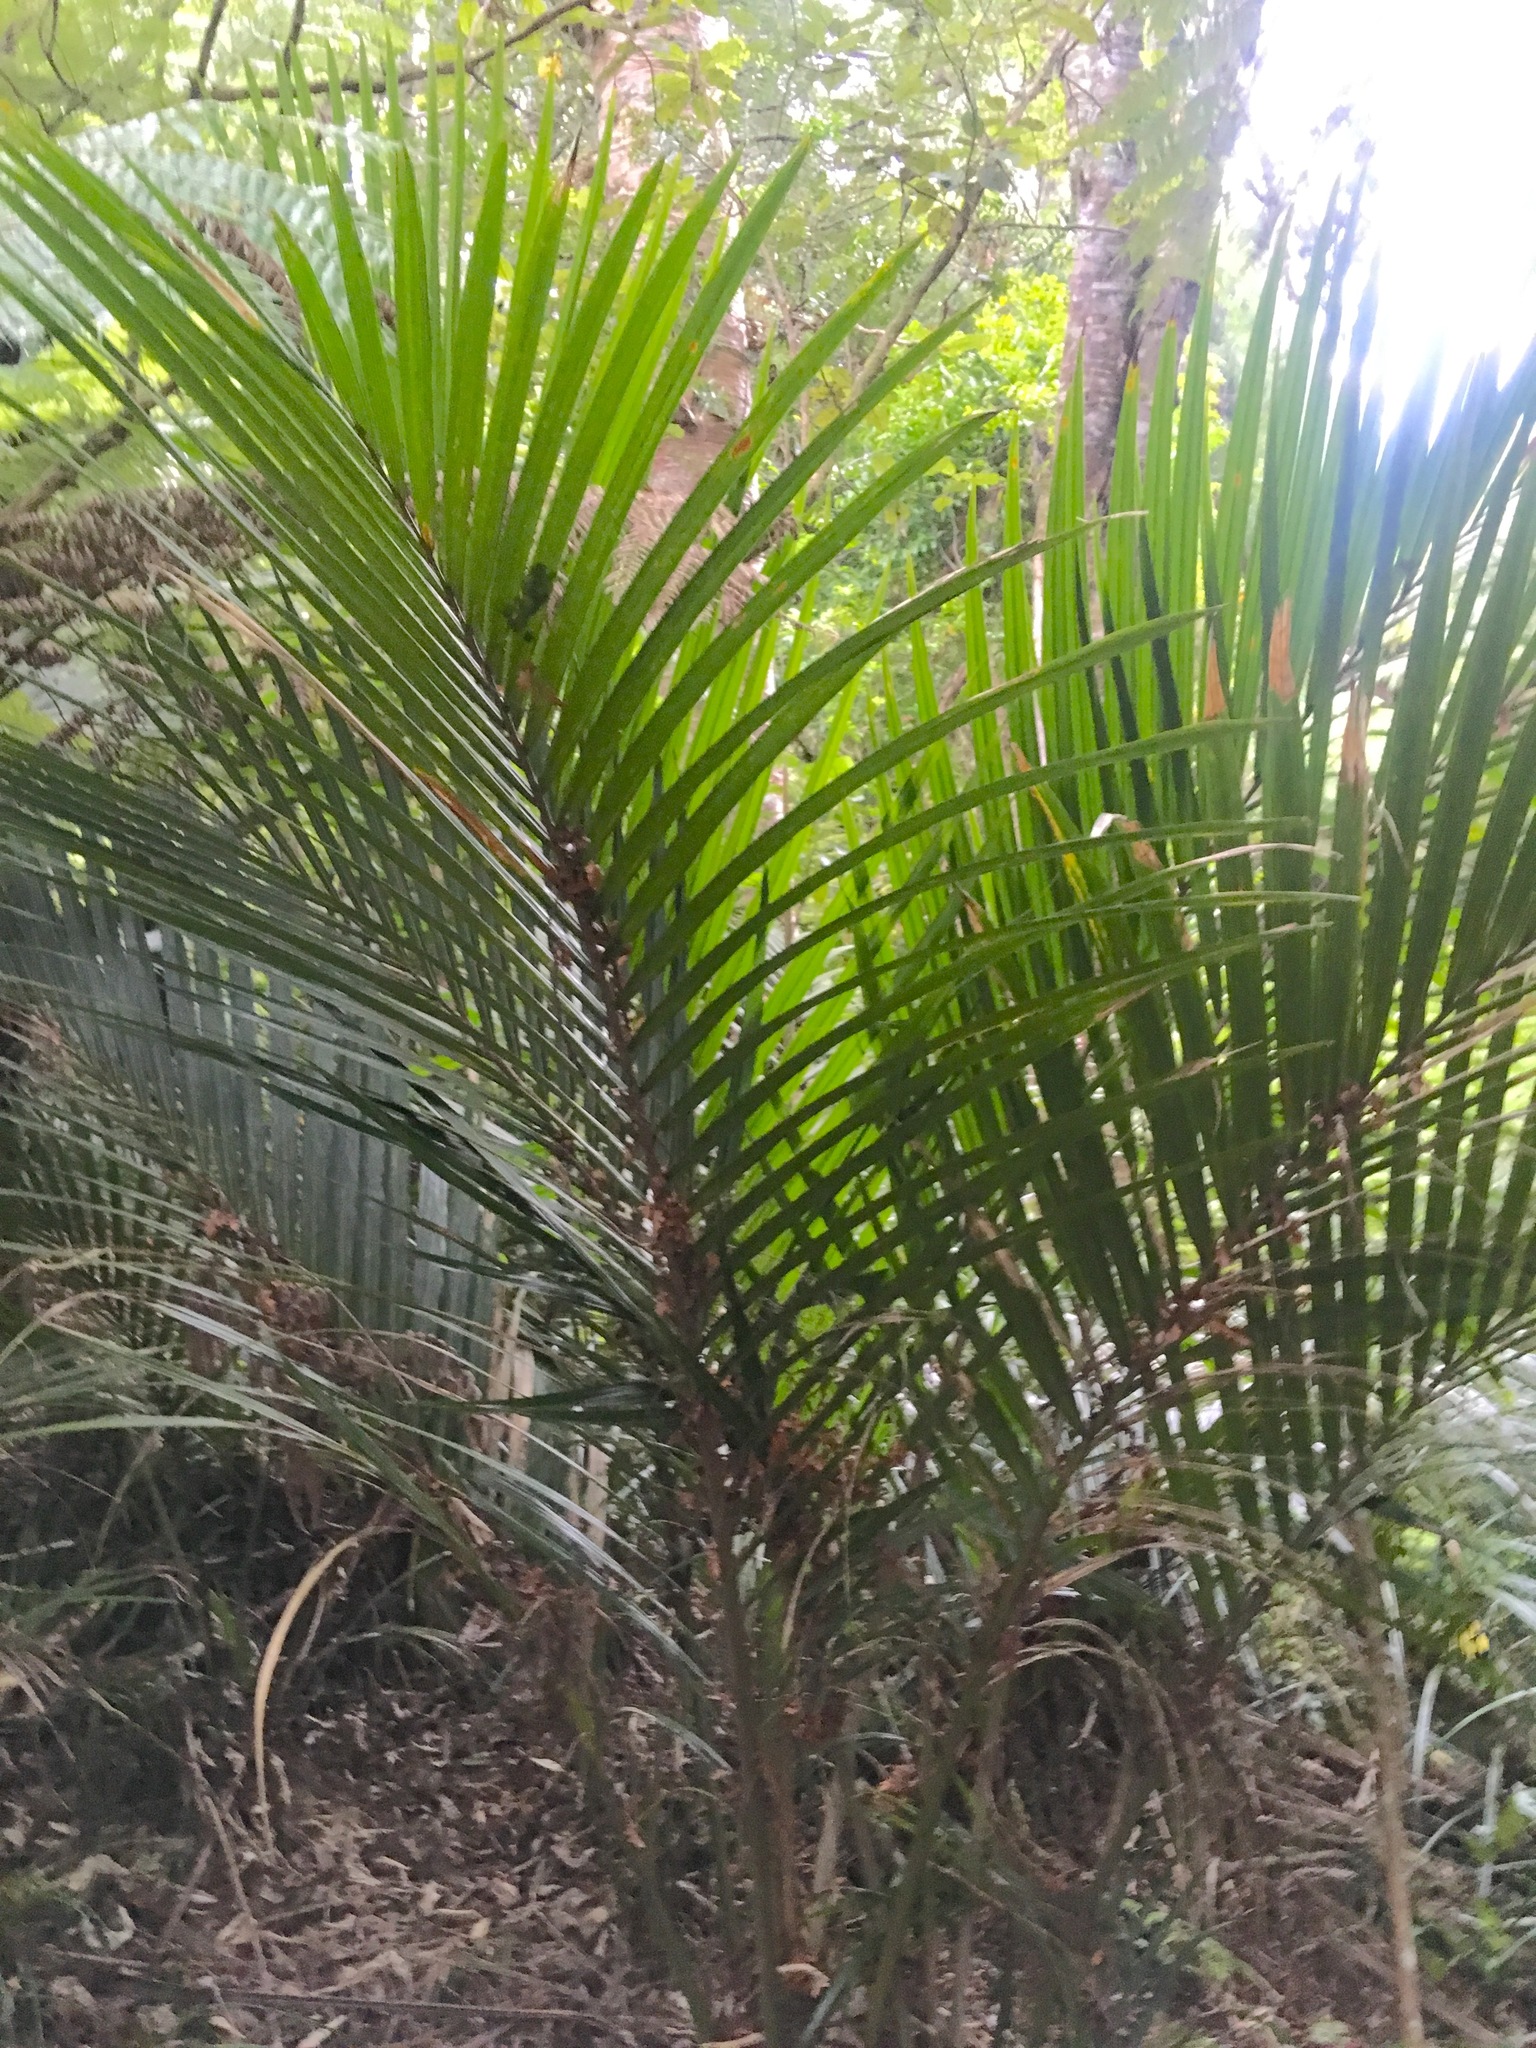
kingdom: Plantae
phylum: Tracheophyta
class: Pinopsida
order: Pinales
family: Araucariaceae
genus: Agathis
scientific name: Agathis australis
